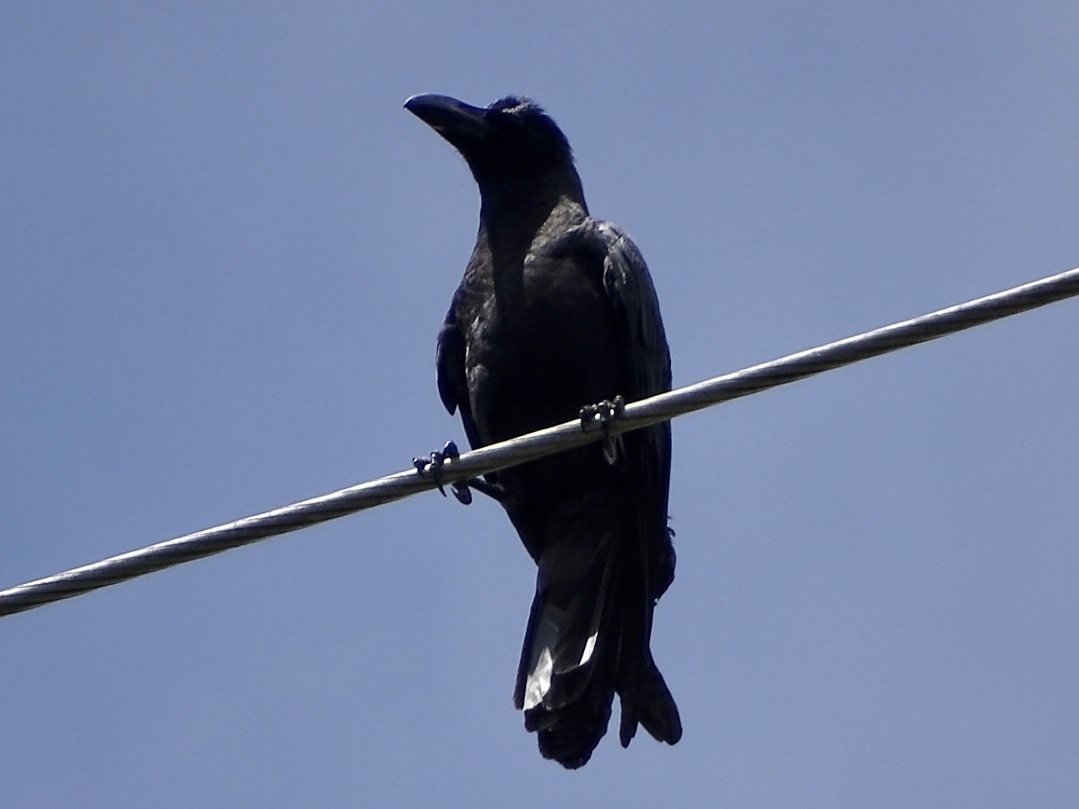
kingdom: Animalia
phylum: Chordata
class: Aves
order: Passeriformes
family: Corvidae
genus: Corvus
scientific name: Corvus macrorhynchos
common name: Large-billed crow
